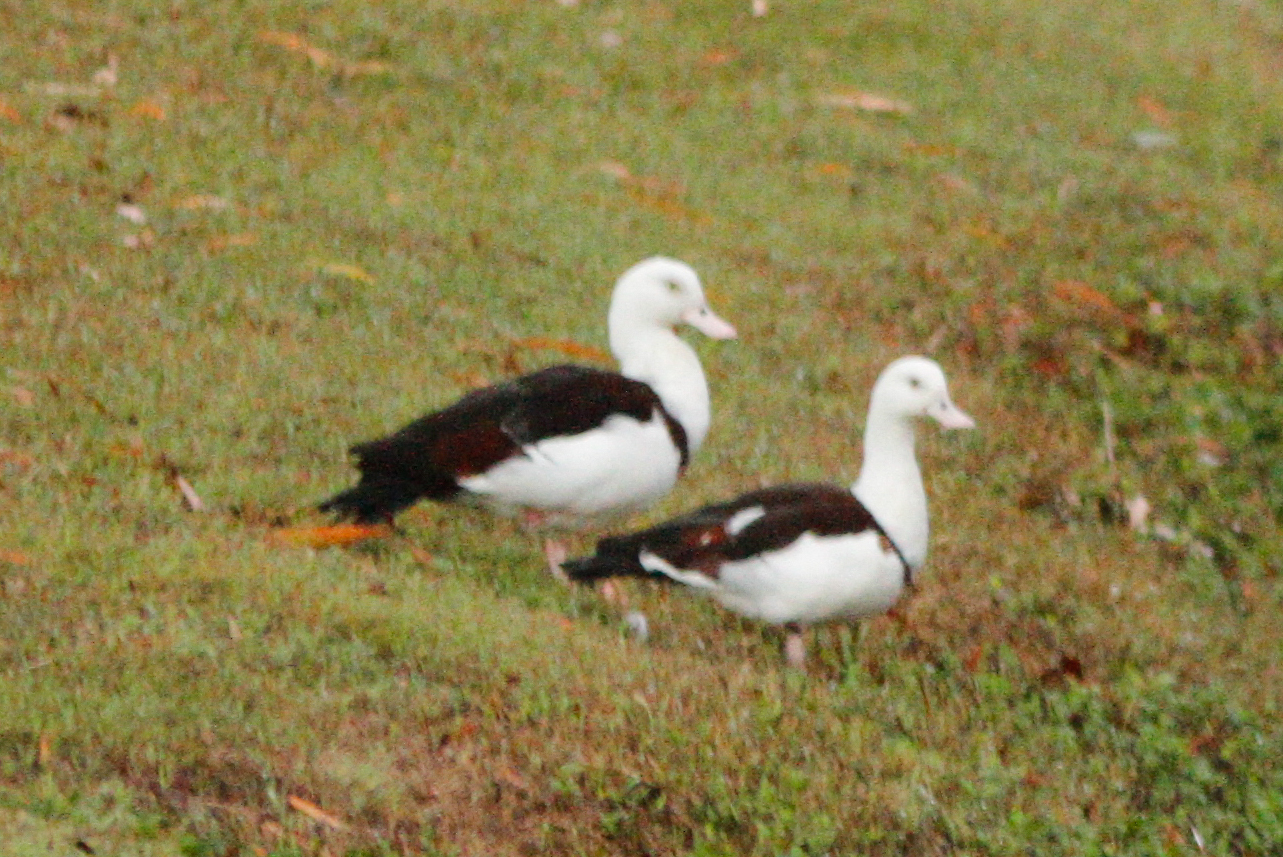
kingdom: Animalia
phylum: Chordata
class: Aves
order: Anseriformes
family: Anatidae
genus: Radjah
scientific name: Radjah radjah
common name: Radjah shelduck
